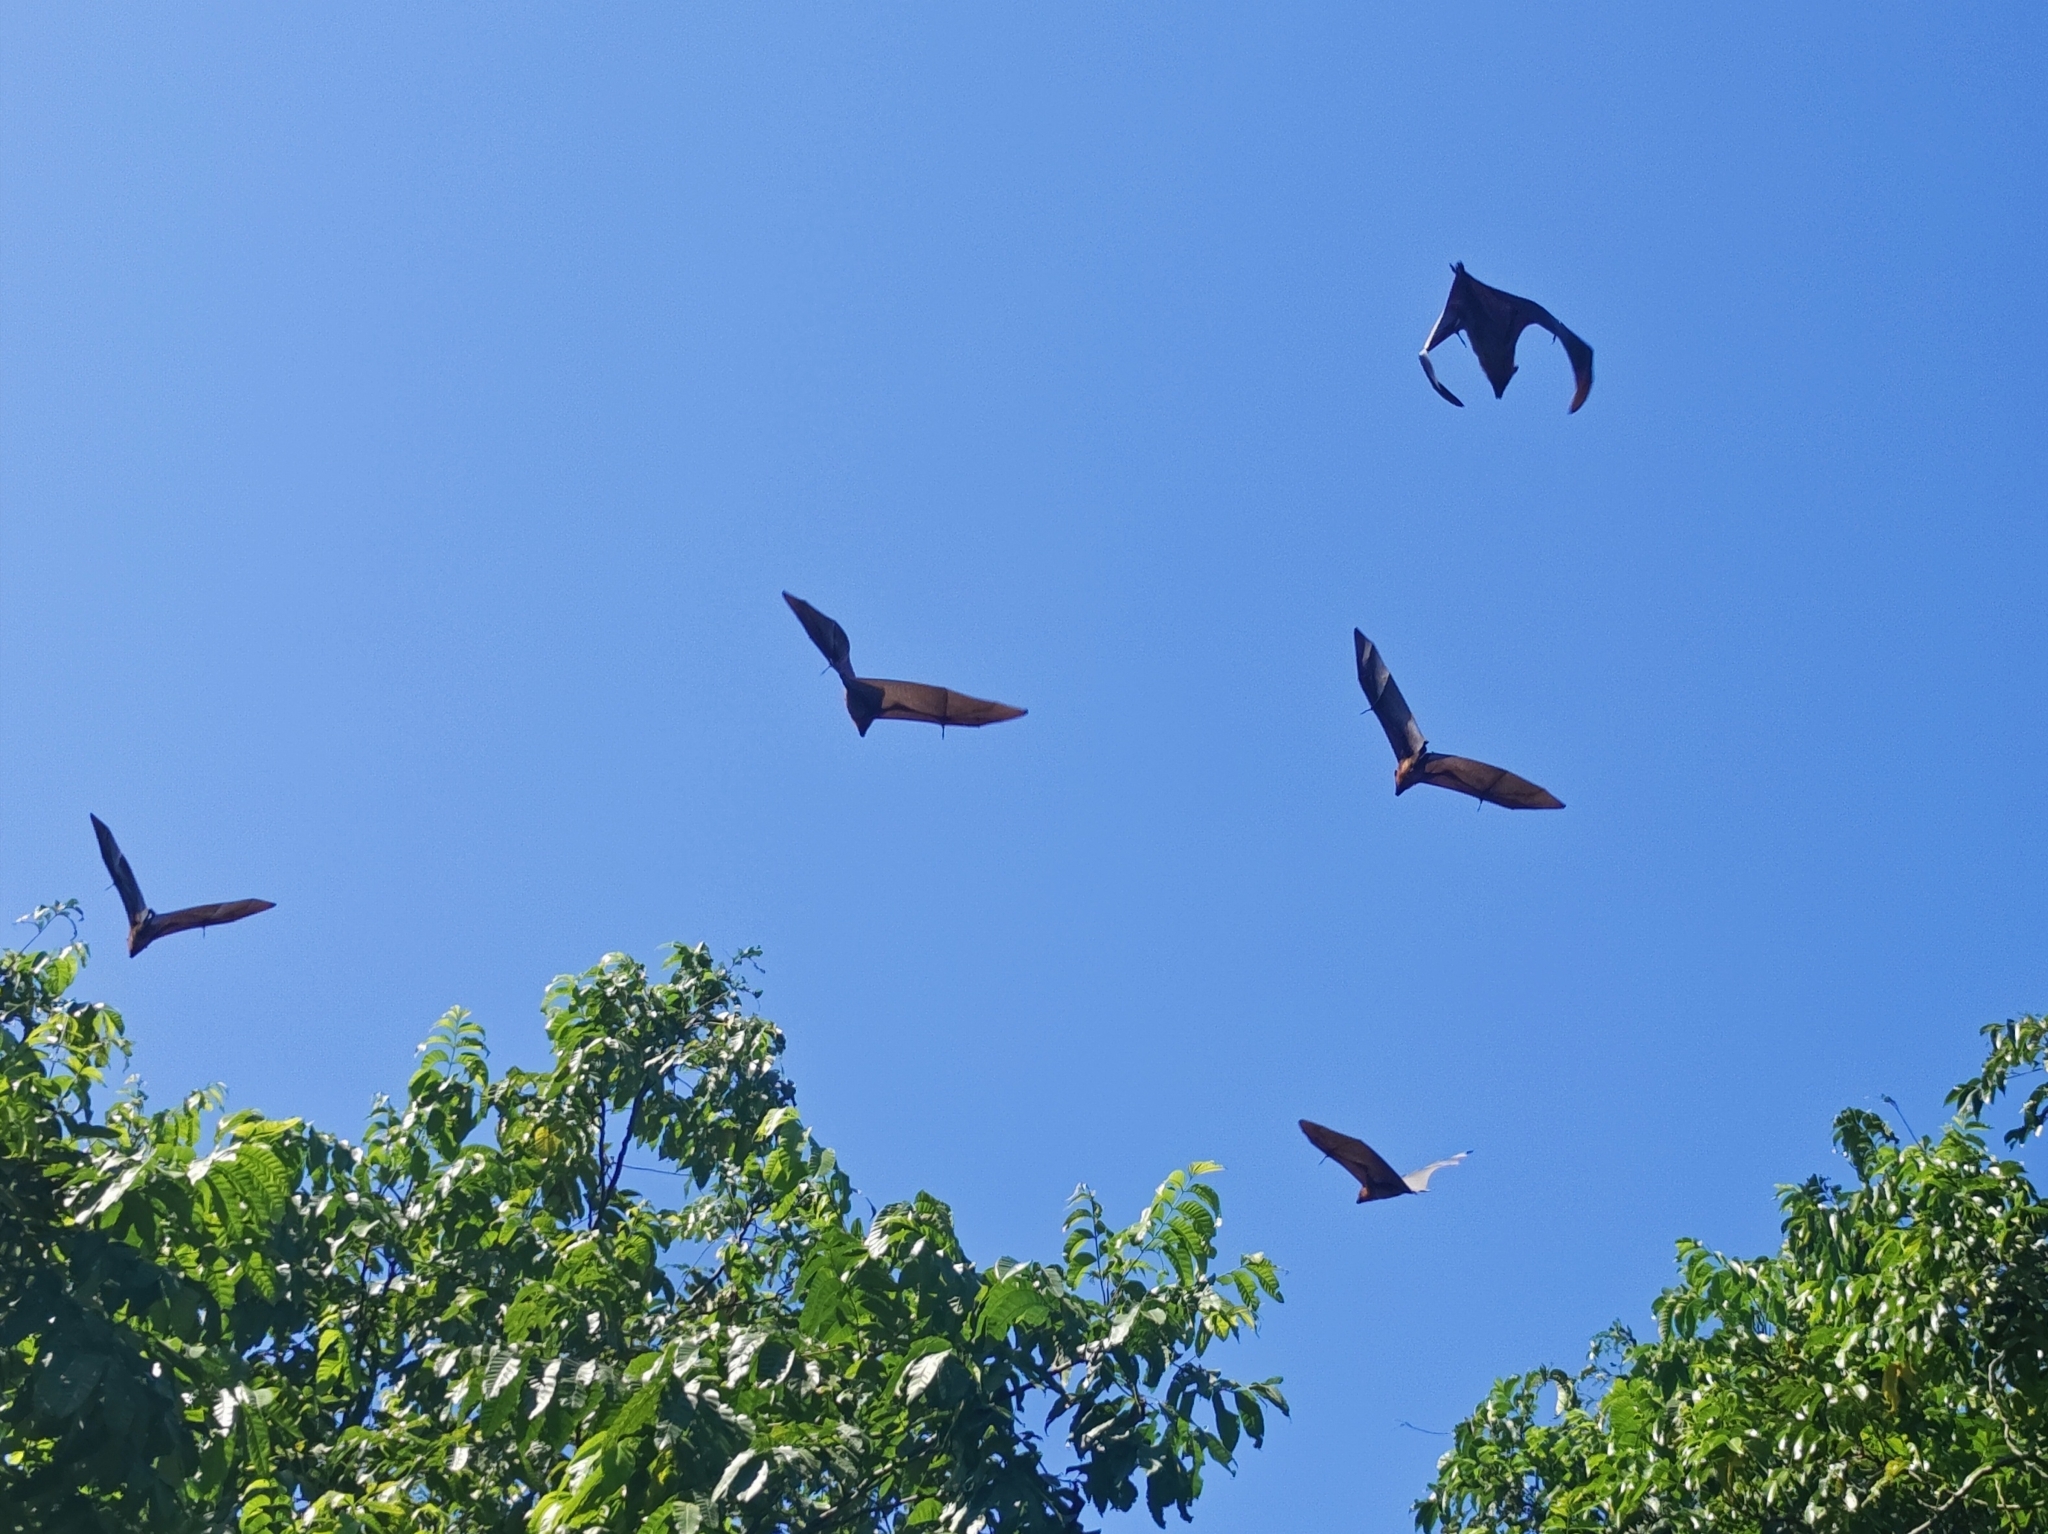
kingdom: Animalia
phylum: Chordata
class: Mammalia
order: Chiroptera
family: Pteropodidae
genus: Pteropus
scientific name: Pteropus vampyrus
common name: Large flying fox
